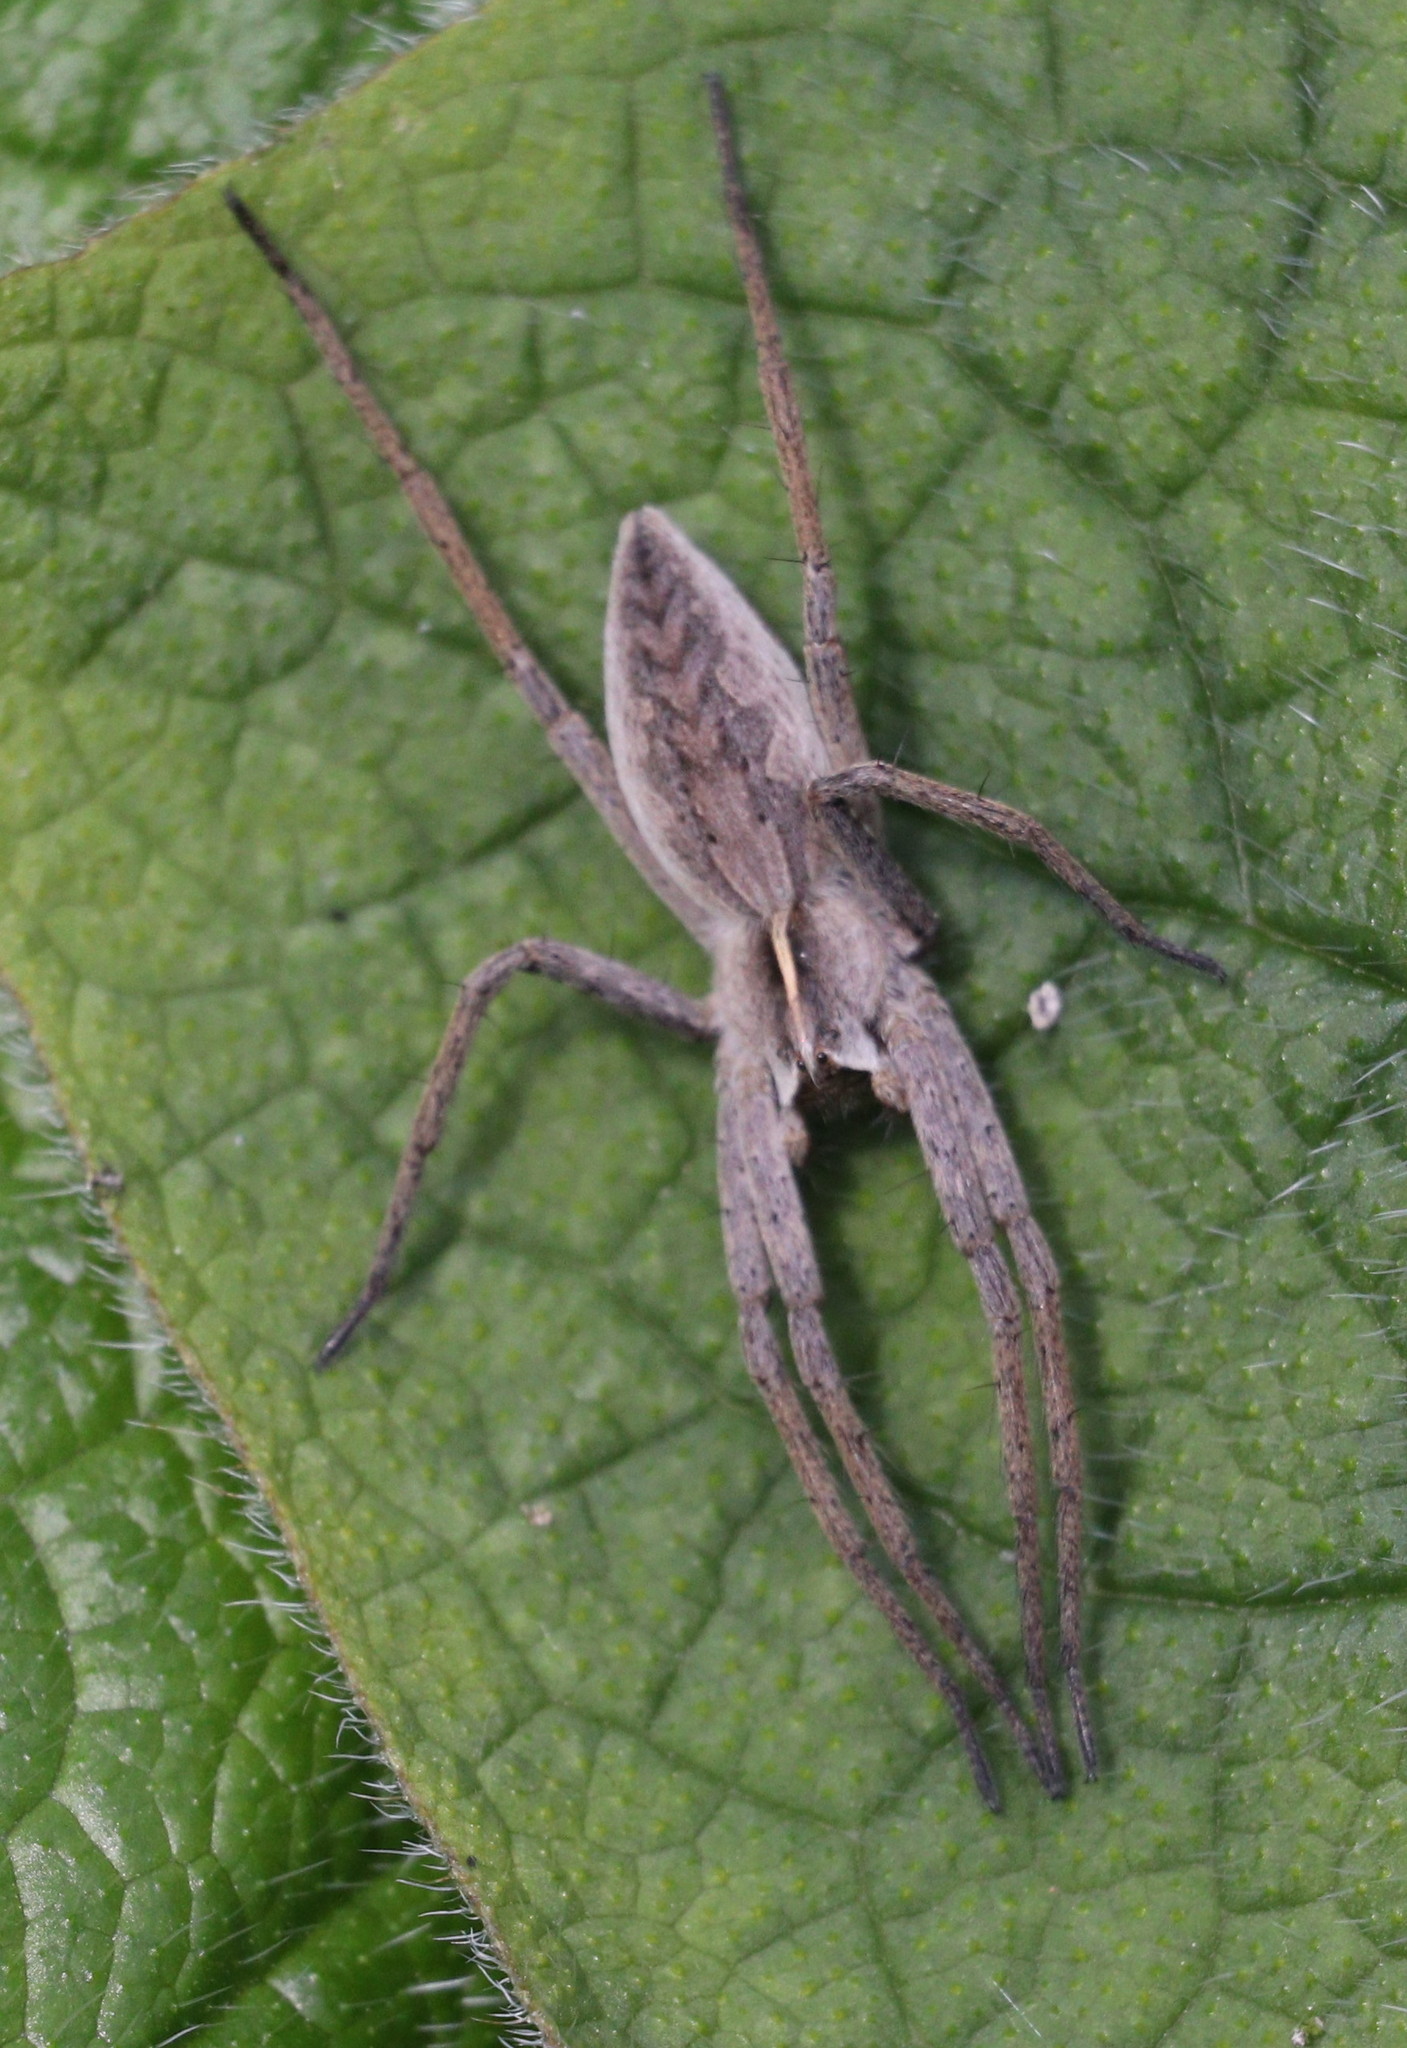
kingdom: Animalia
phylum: Arthropoda
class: Arachnida
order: Araneae
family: Pisauridae
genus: Pisaura
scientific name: Pisaura mirabilis
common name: Tent spider
